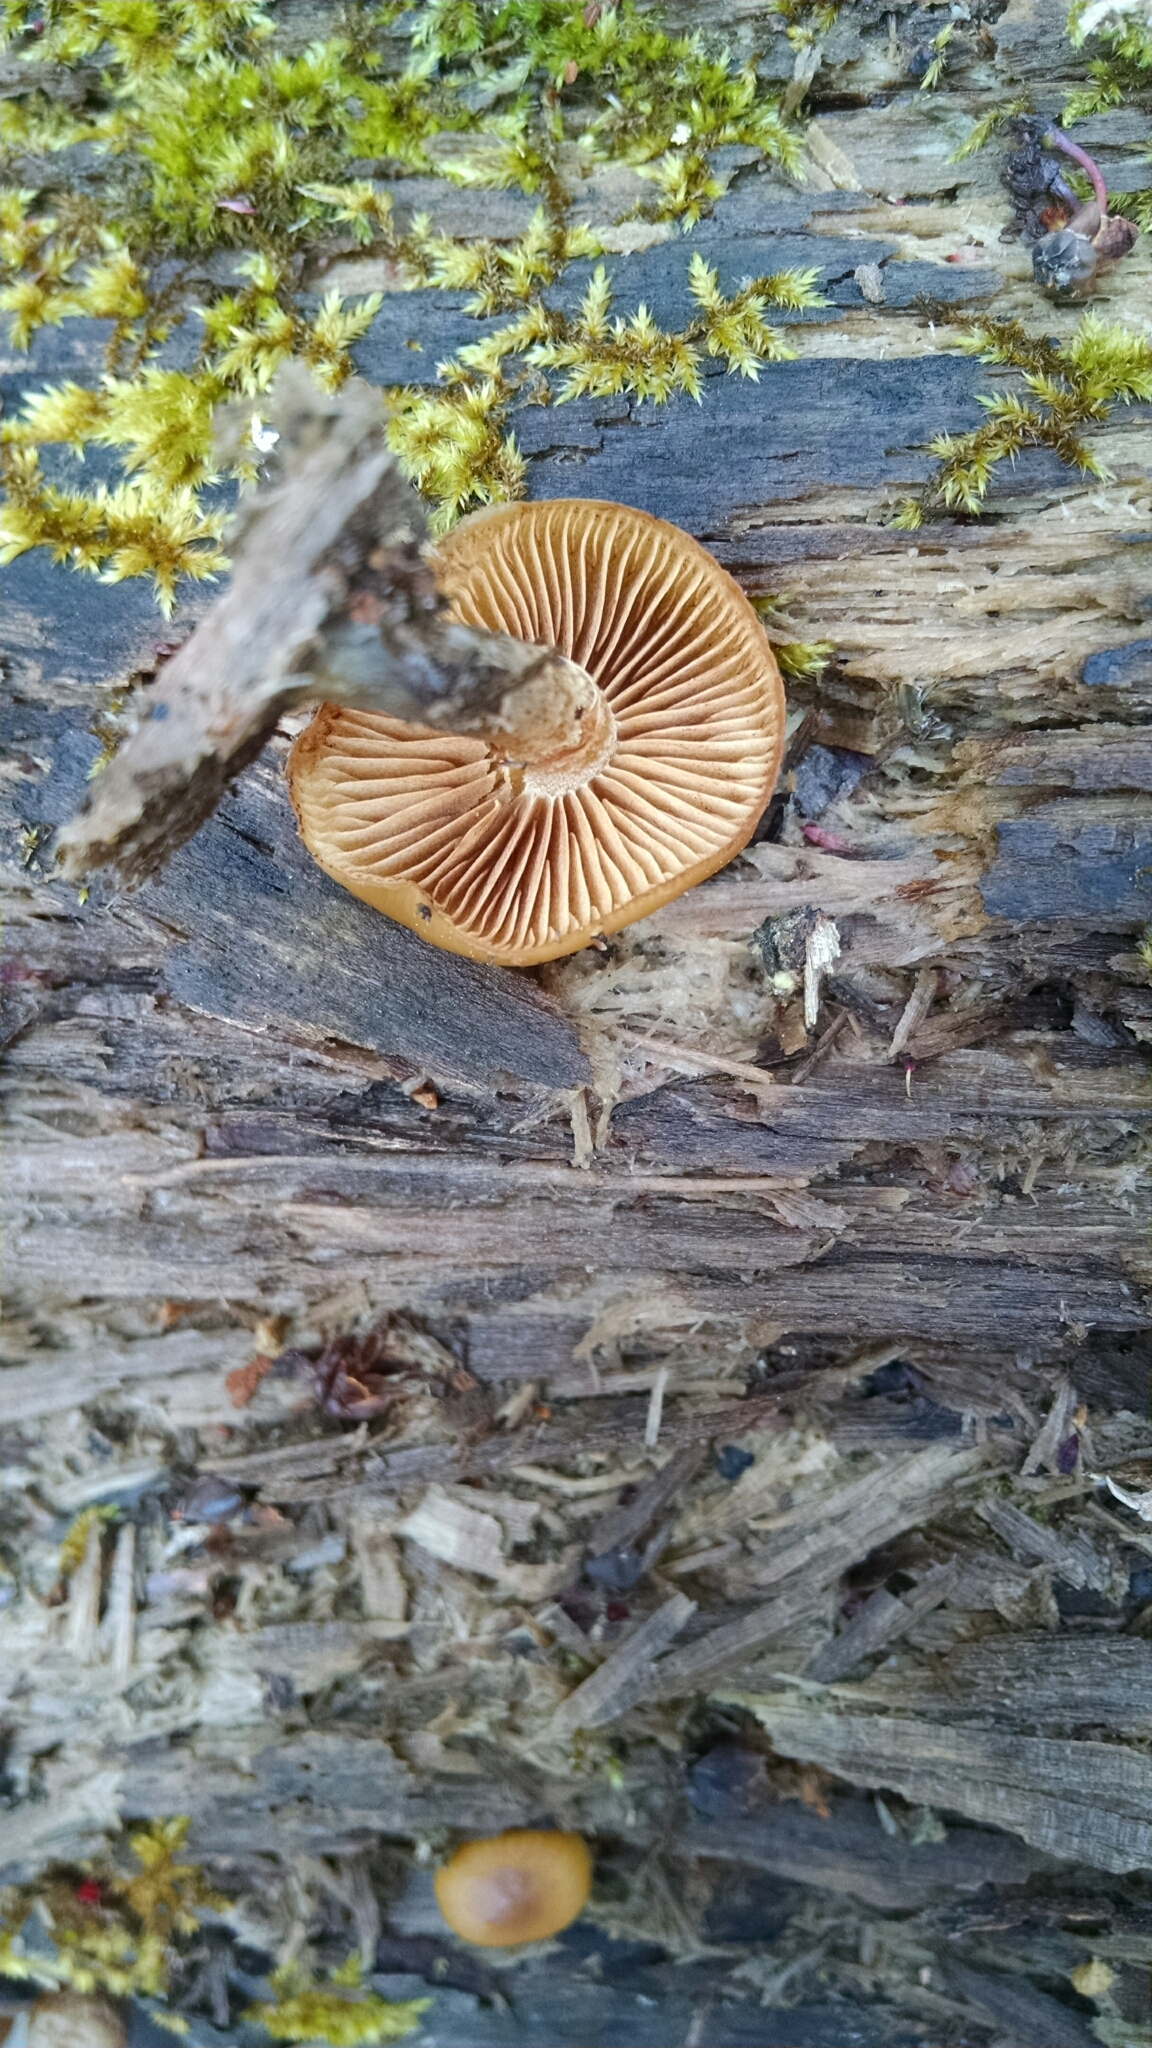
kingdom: Fungi
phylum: Basidiomycota
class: Agaricomycetes
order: Agaricales
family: Hymenogastraceae
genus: Galerina
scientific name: Galerina marginata
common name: Funeral bell
